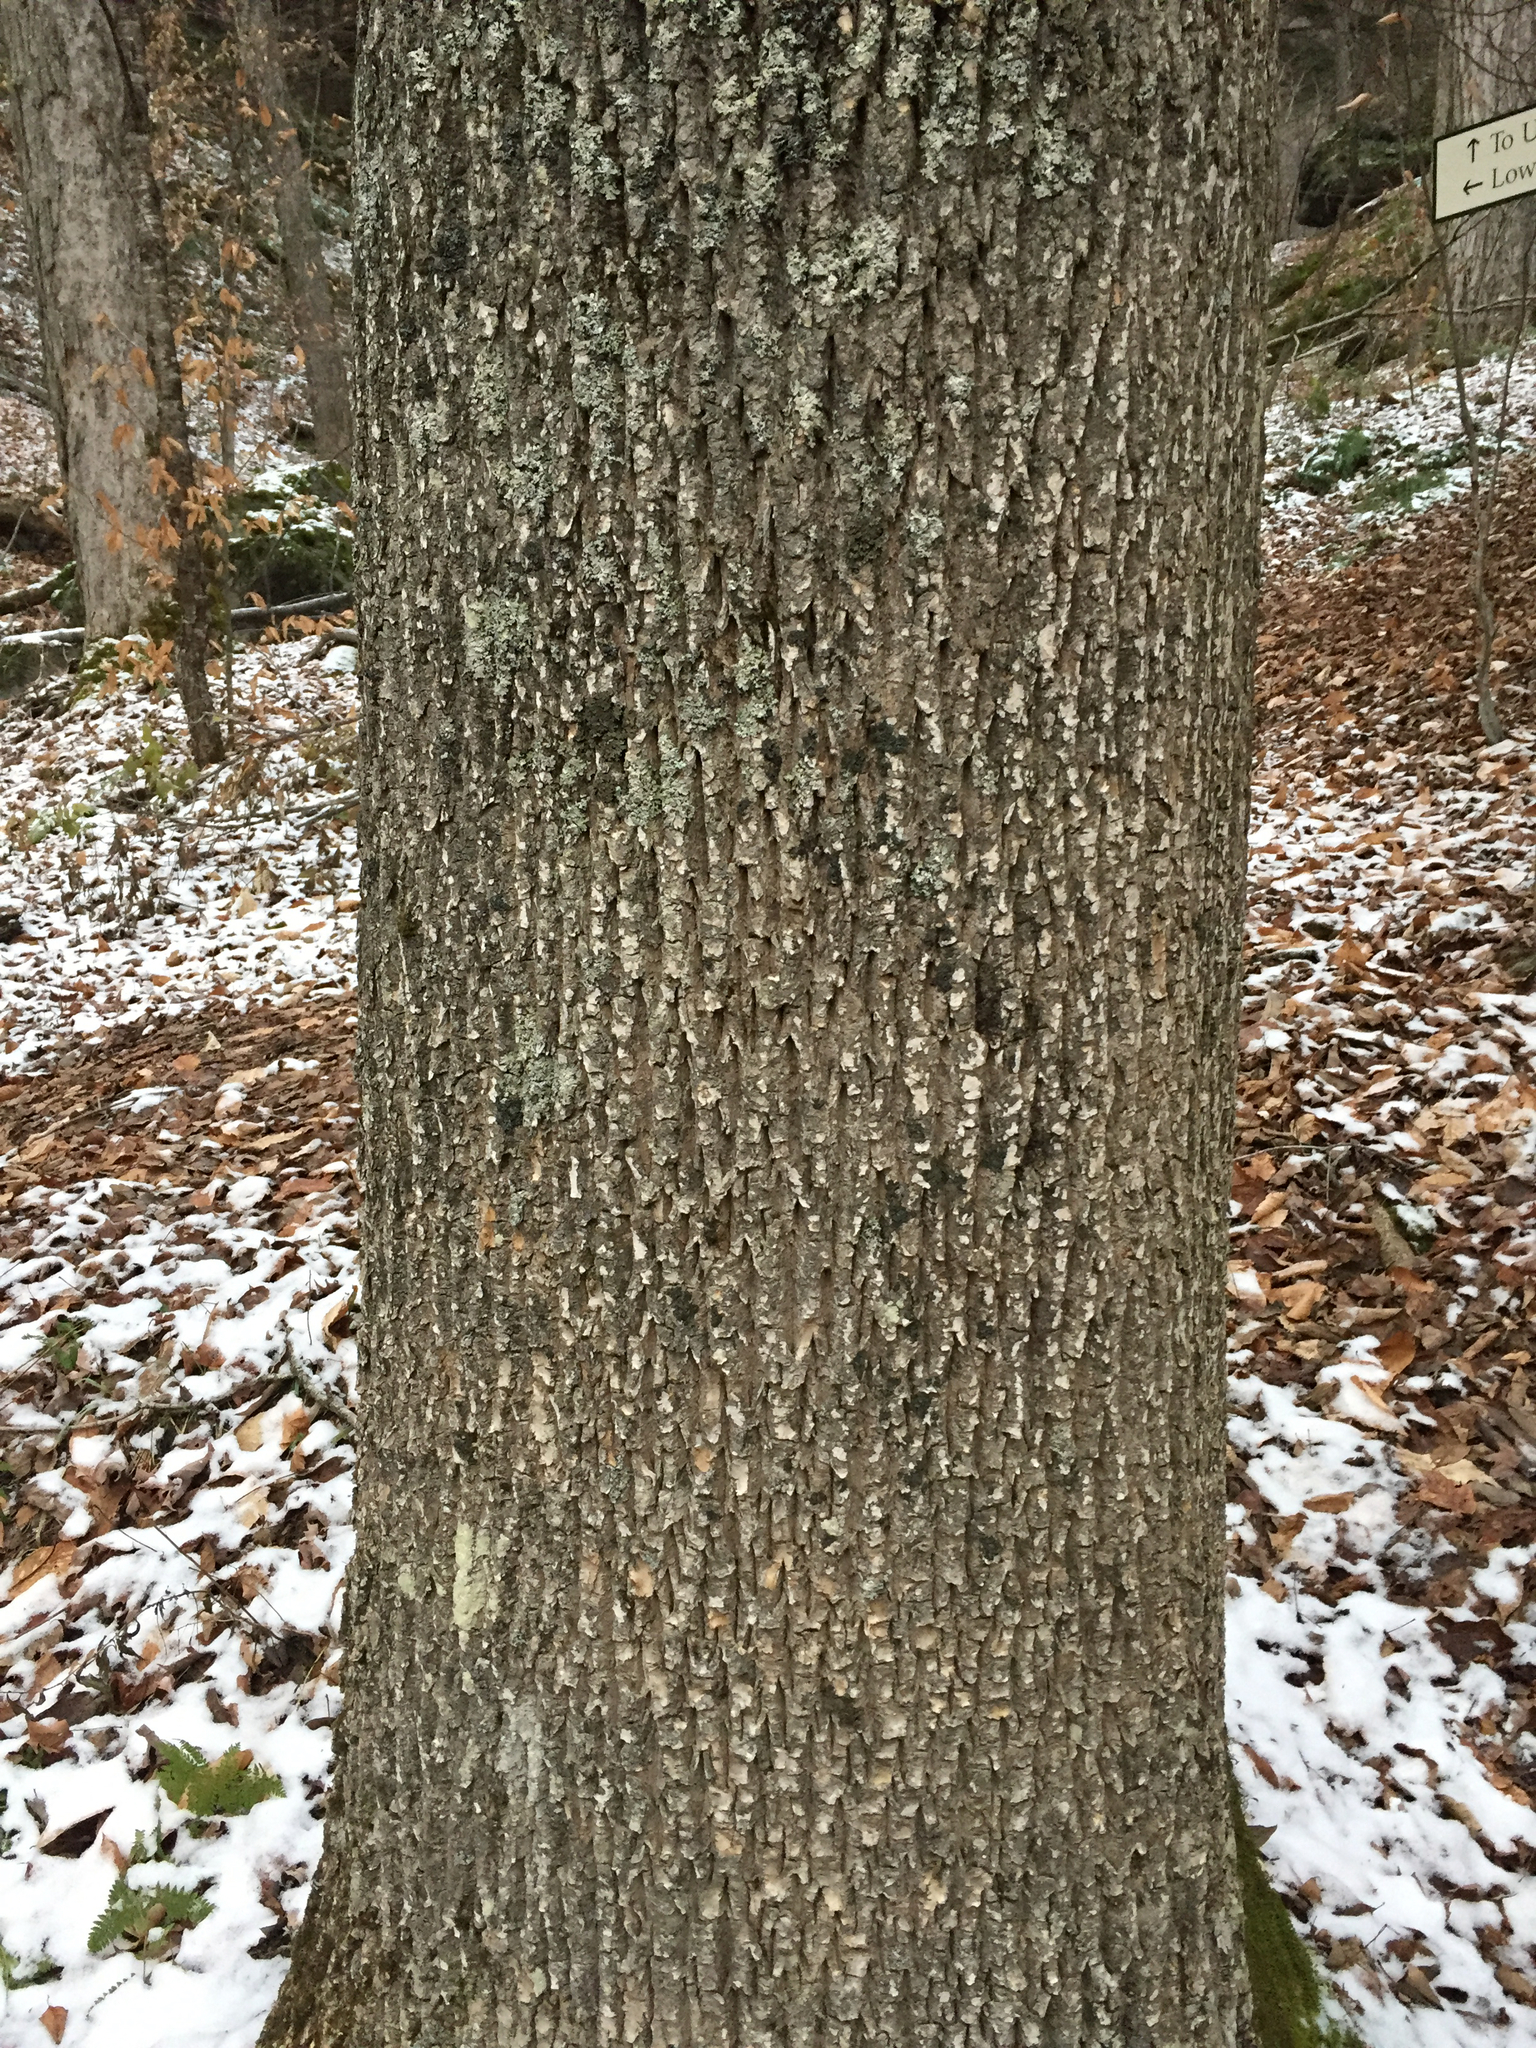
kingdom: Plantae
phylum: Tracheophyta
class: Magnoliopsida
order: Lamiales
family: Oleaceae
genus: Fraxinus
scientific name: Fraxinus americana
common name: White ash
